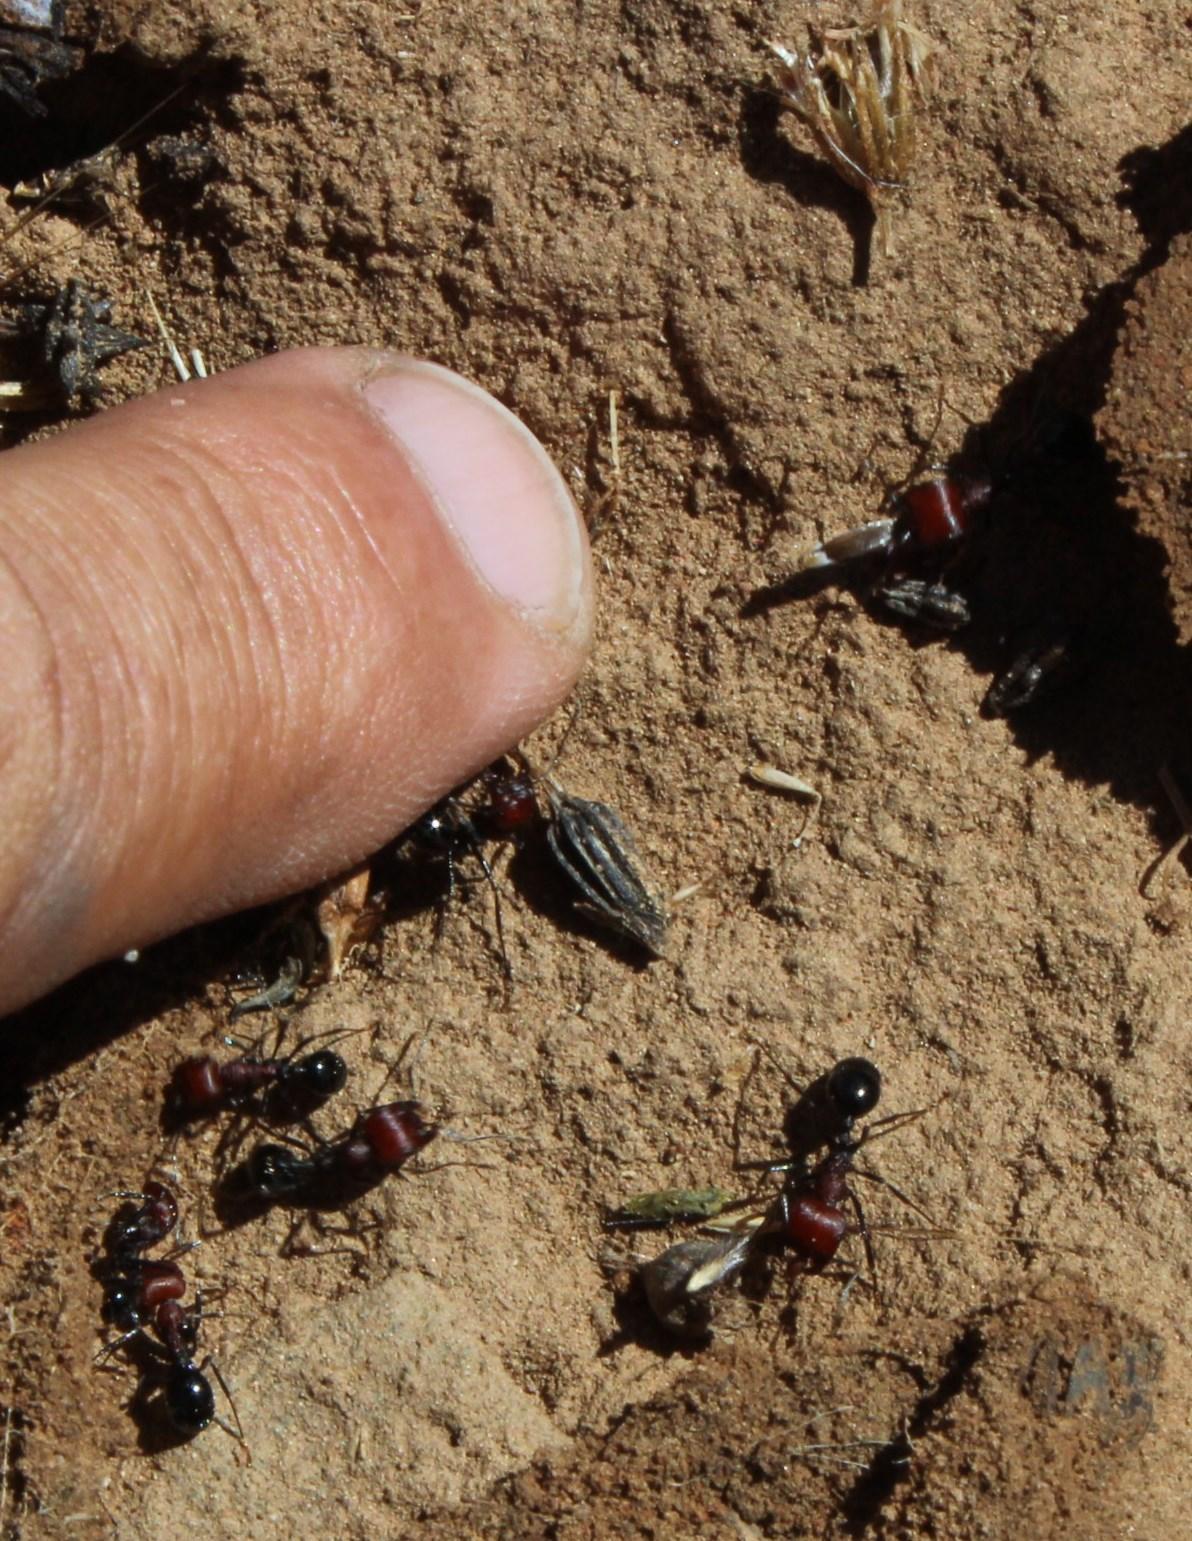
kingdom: Animalia
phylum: Arthropoda
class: Insecta
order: Hymenoptera
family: Formicidae
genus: Messor
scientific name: Messor striatifrons
